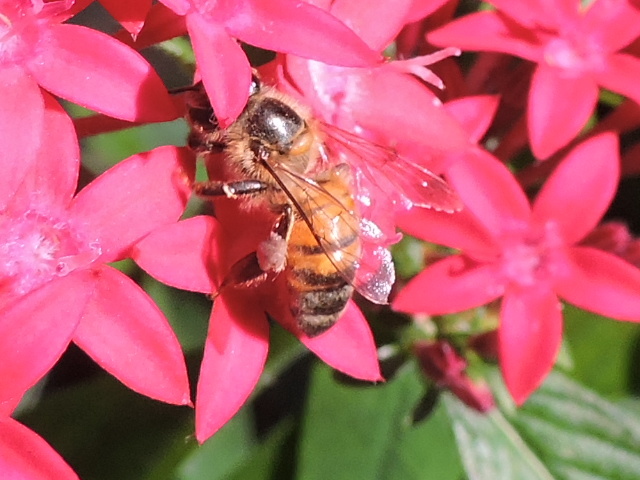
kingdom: Animalia
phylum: Arthropoda
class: Insecta
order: Hymenoptera
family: Apidae
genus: Apis
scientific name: Apis mellifera
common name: Honey bee
